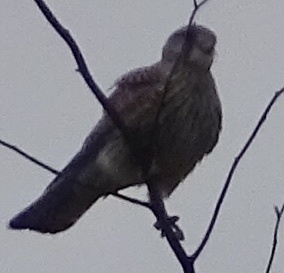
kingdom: Animalia
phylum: Chordata
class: Aves
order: Falconiformes
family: Falconidae
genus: Falco
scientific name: Falco tinnunculus
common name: Common kestrel
